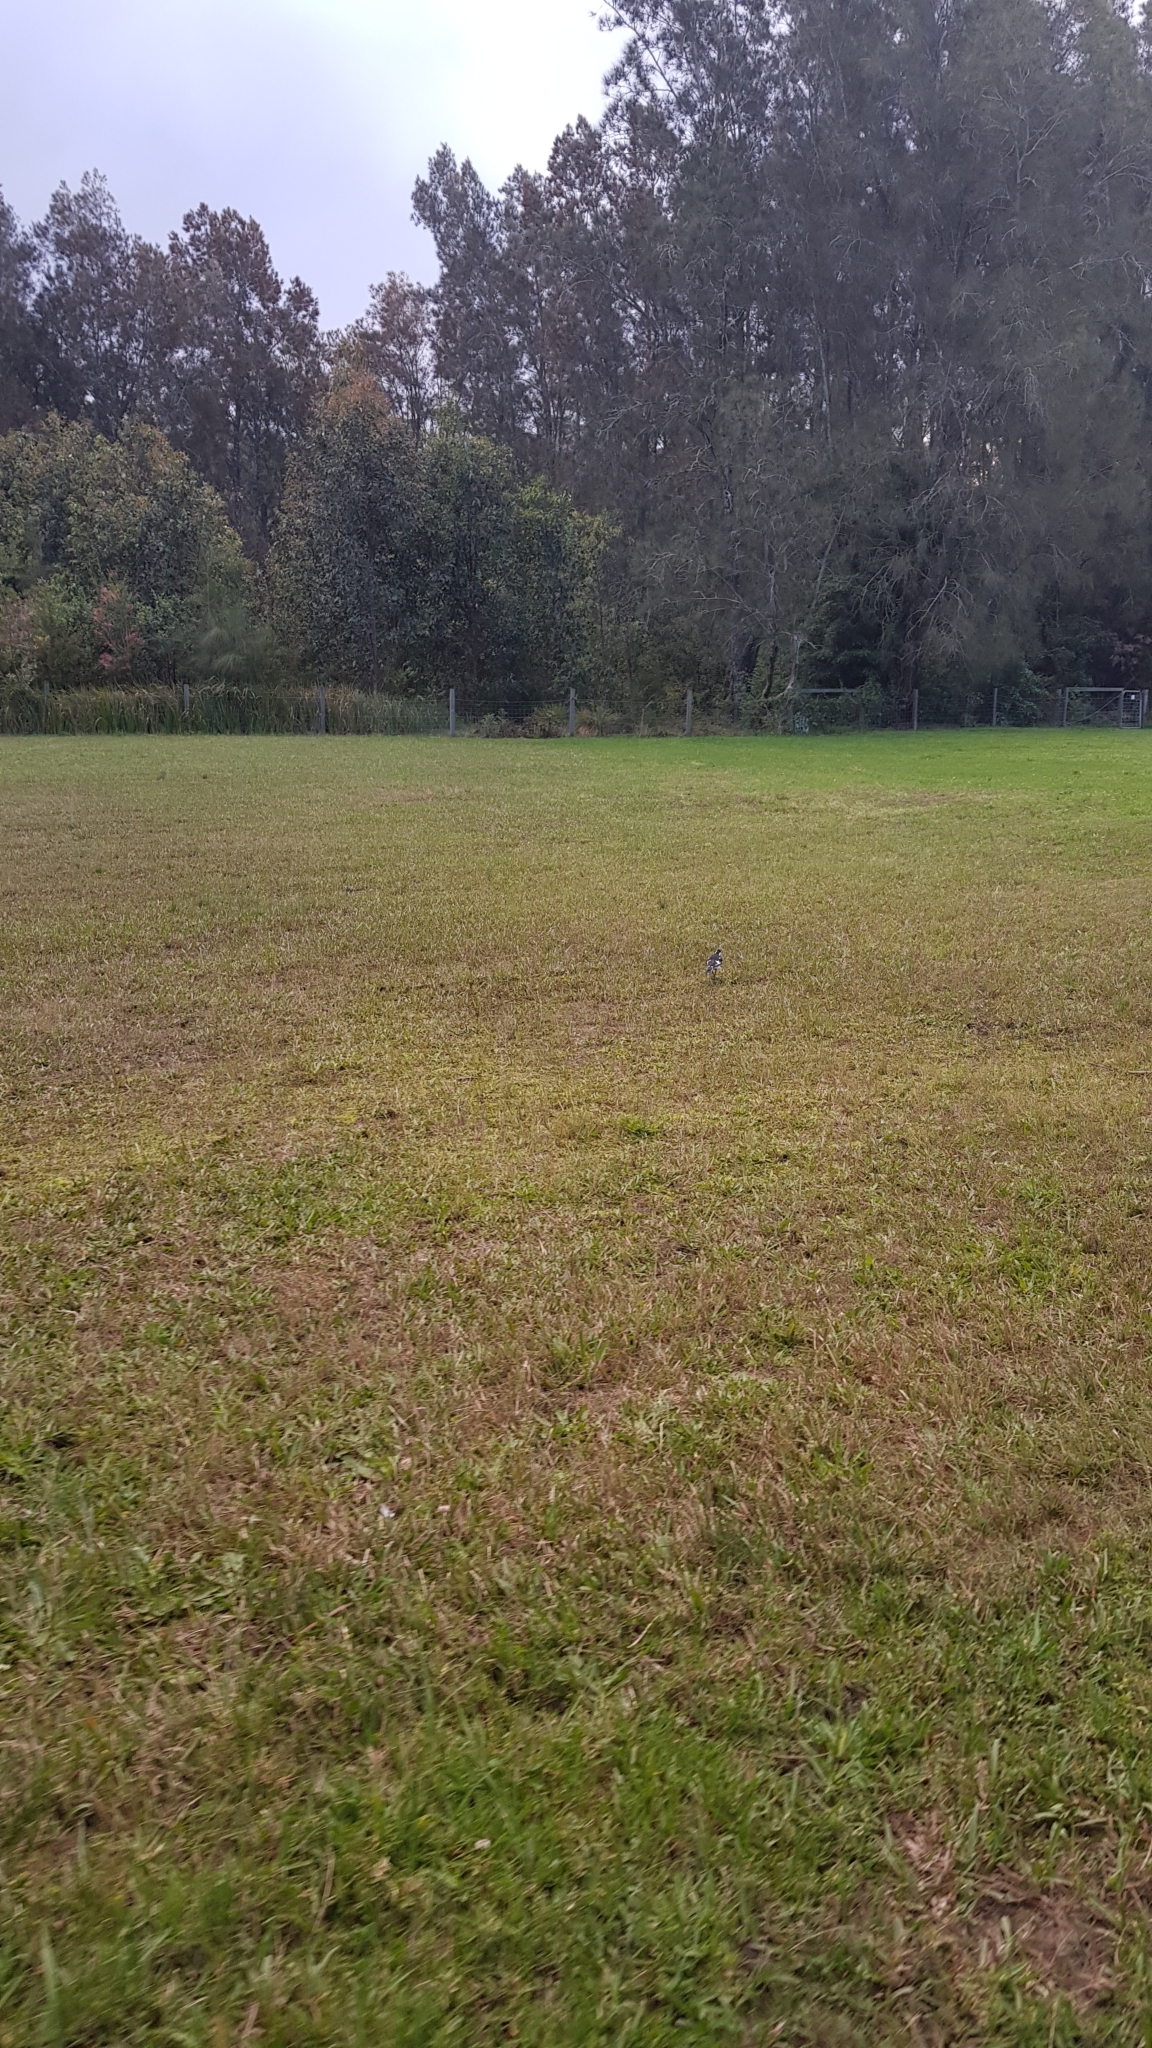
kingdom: Animalia
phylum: Chordata
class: Aves
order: Passeriformes
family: Monarchidae
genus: Grallina
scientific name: Grallina cyanoleuca
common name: Magpie-lark
